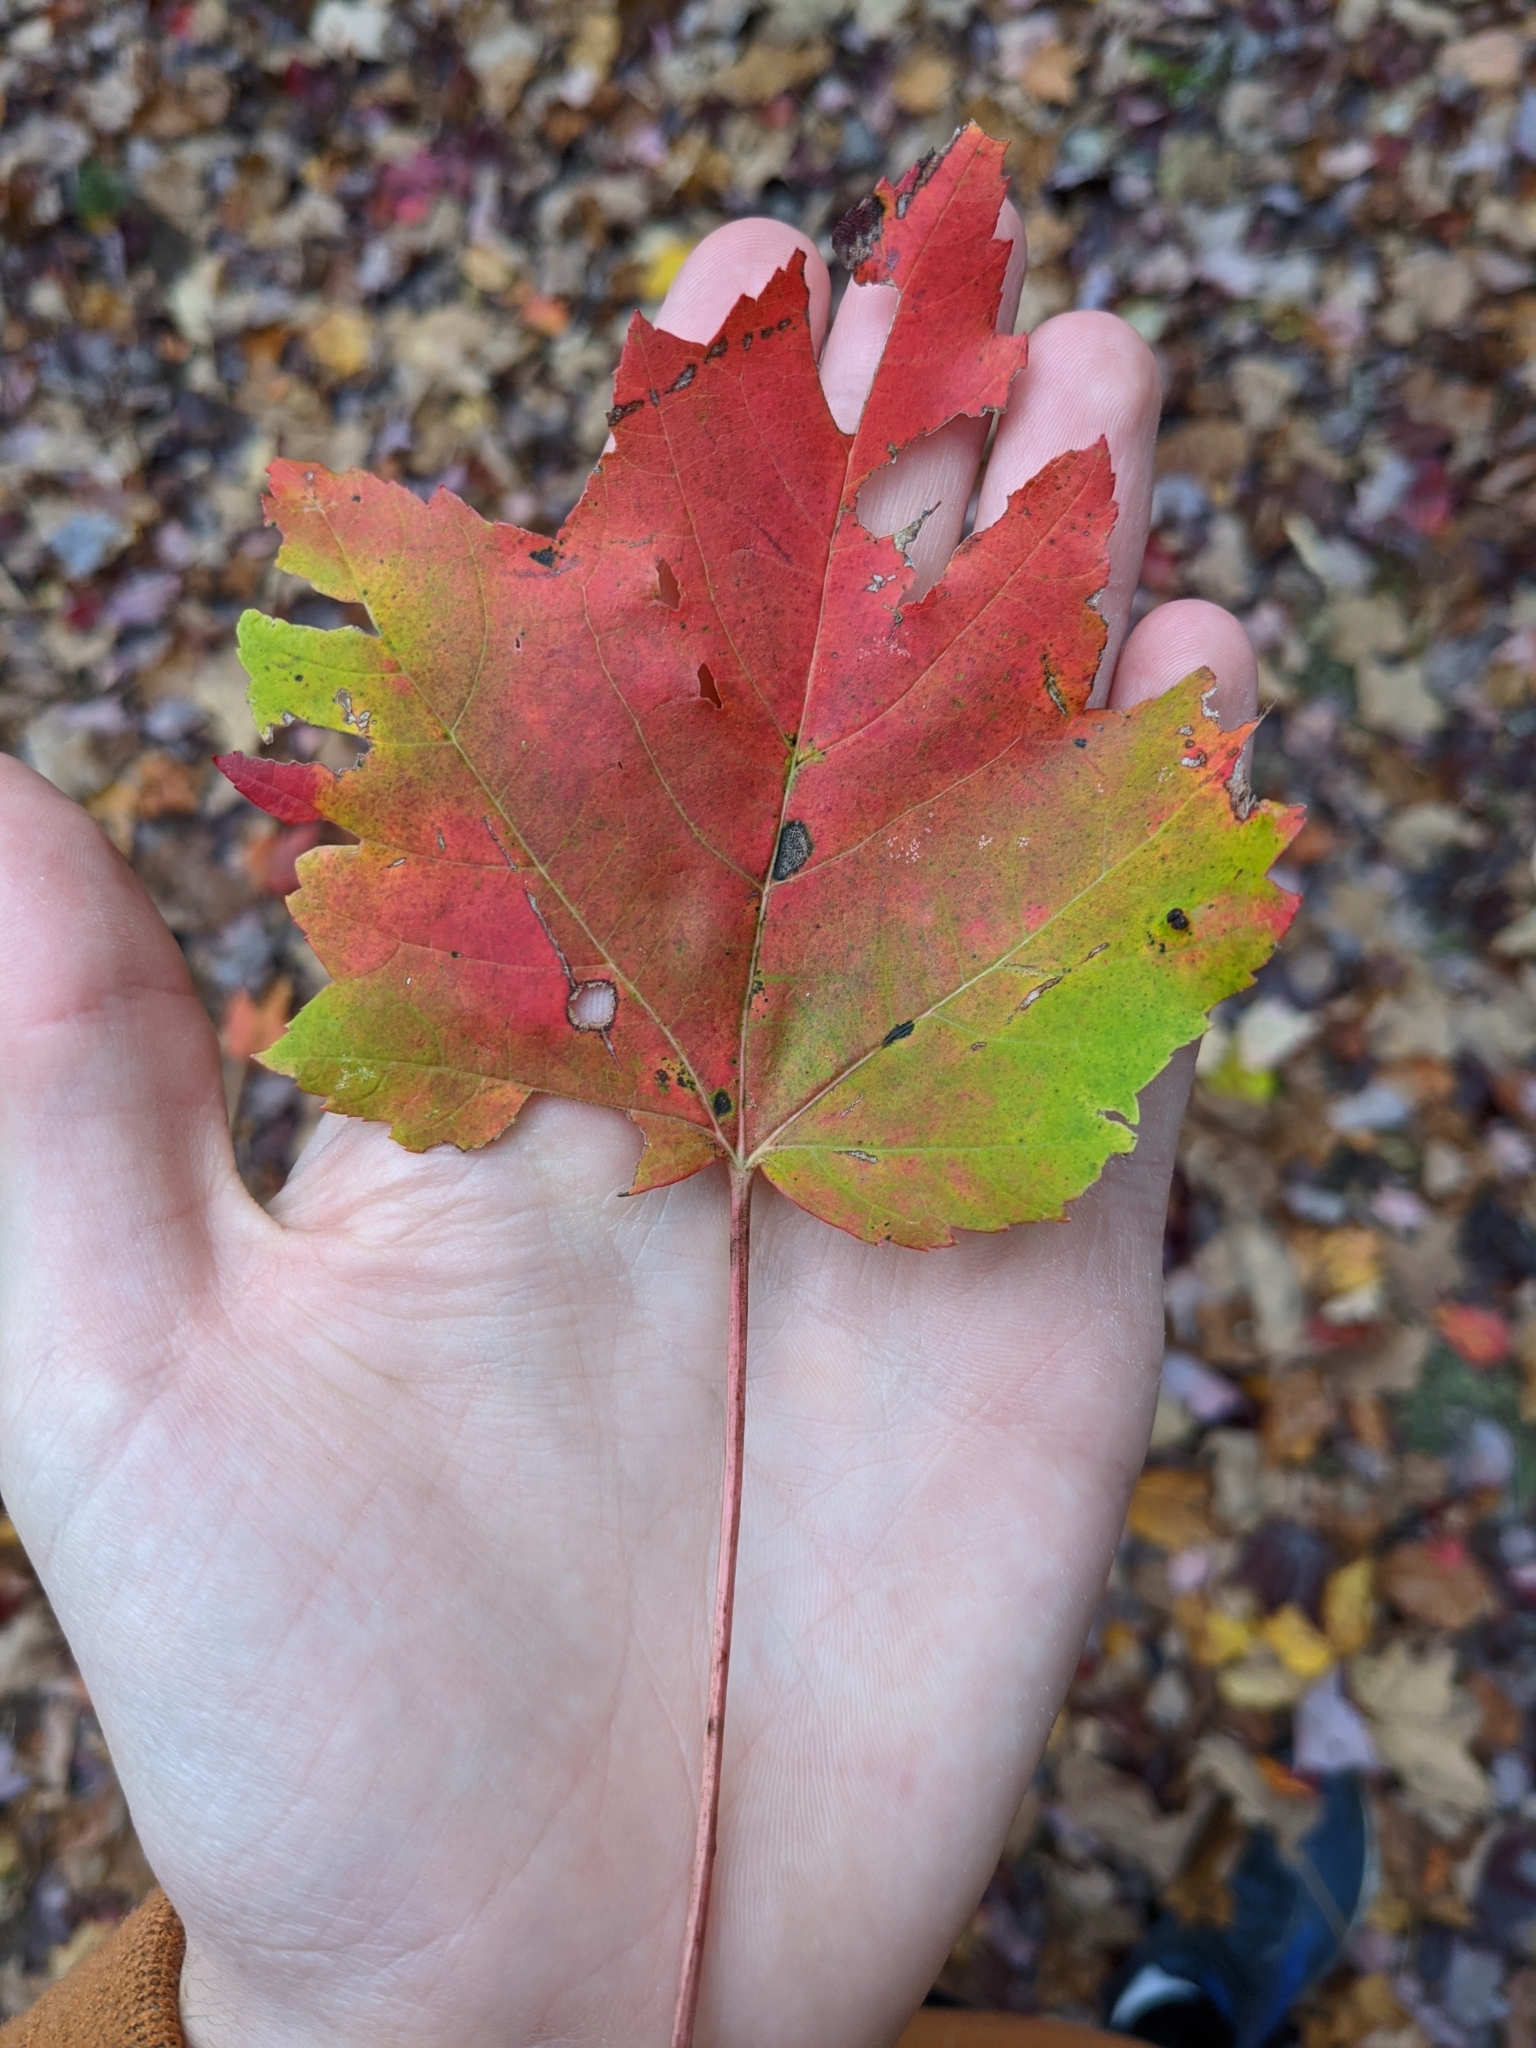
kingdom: Plantae
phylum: Tracheophyta
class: Magnoliopsida
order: Sapindales
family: Sapindaceae
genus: Acer
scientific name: Acer rubrum
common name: Red maple
